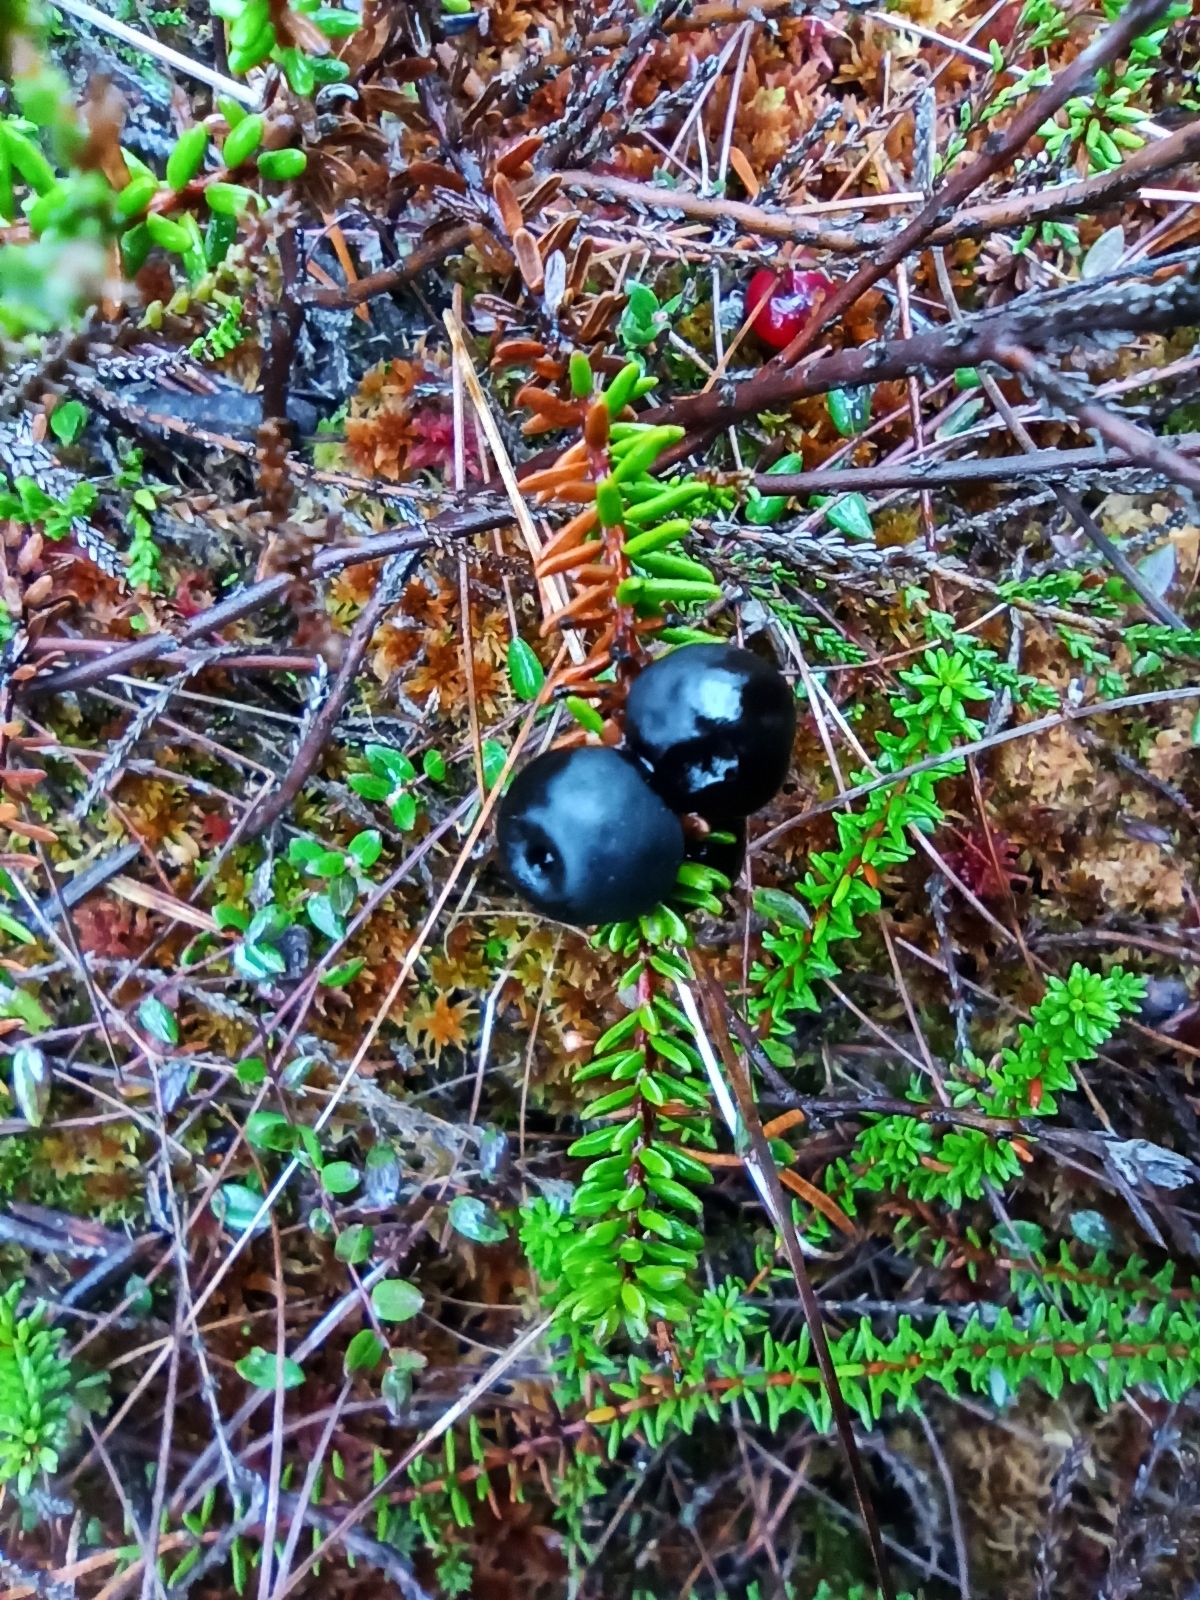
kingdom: Plantae
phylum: Tracheophyta
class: Magnoliopsida
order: Ericales
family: Ericaceae
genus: Empetrum
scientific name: Empetrum nigrum
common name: Black crowberry
